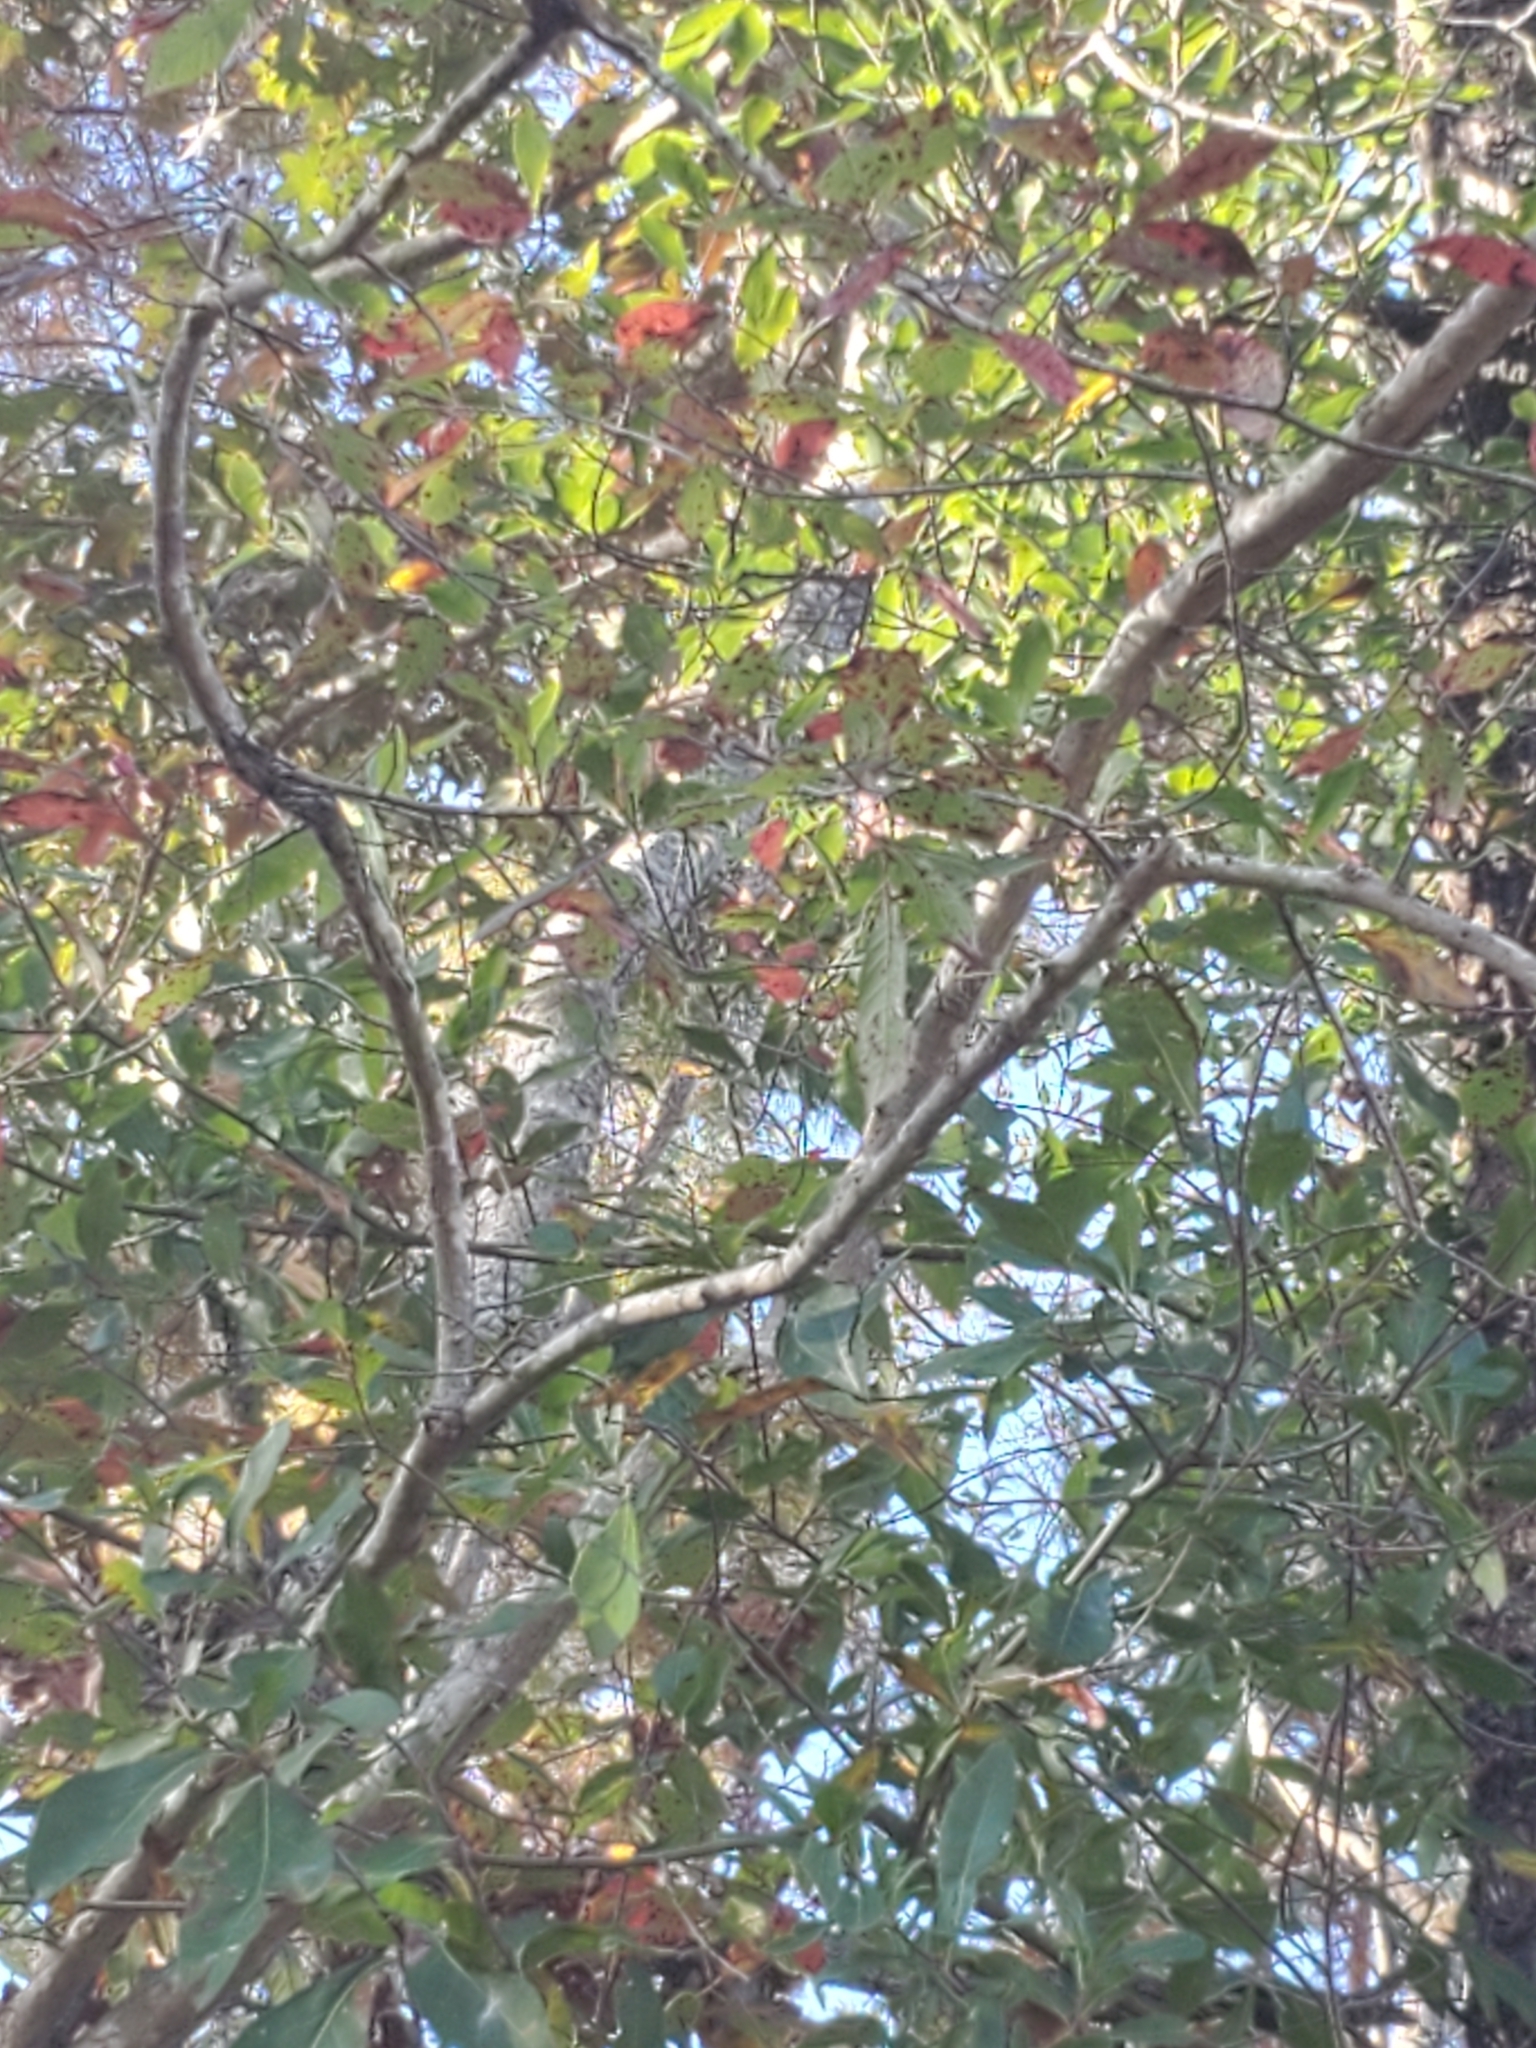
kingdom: Plantae
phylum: Tracheophyta
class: Polypodiopsida
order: Salviniales
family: Salviniaceae
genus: Salvinia
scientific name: Salvinia minima
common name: Water spangles
